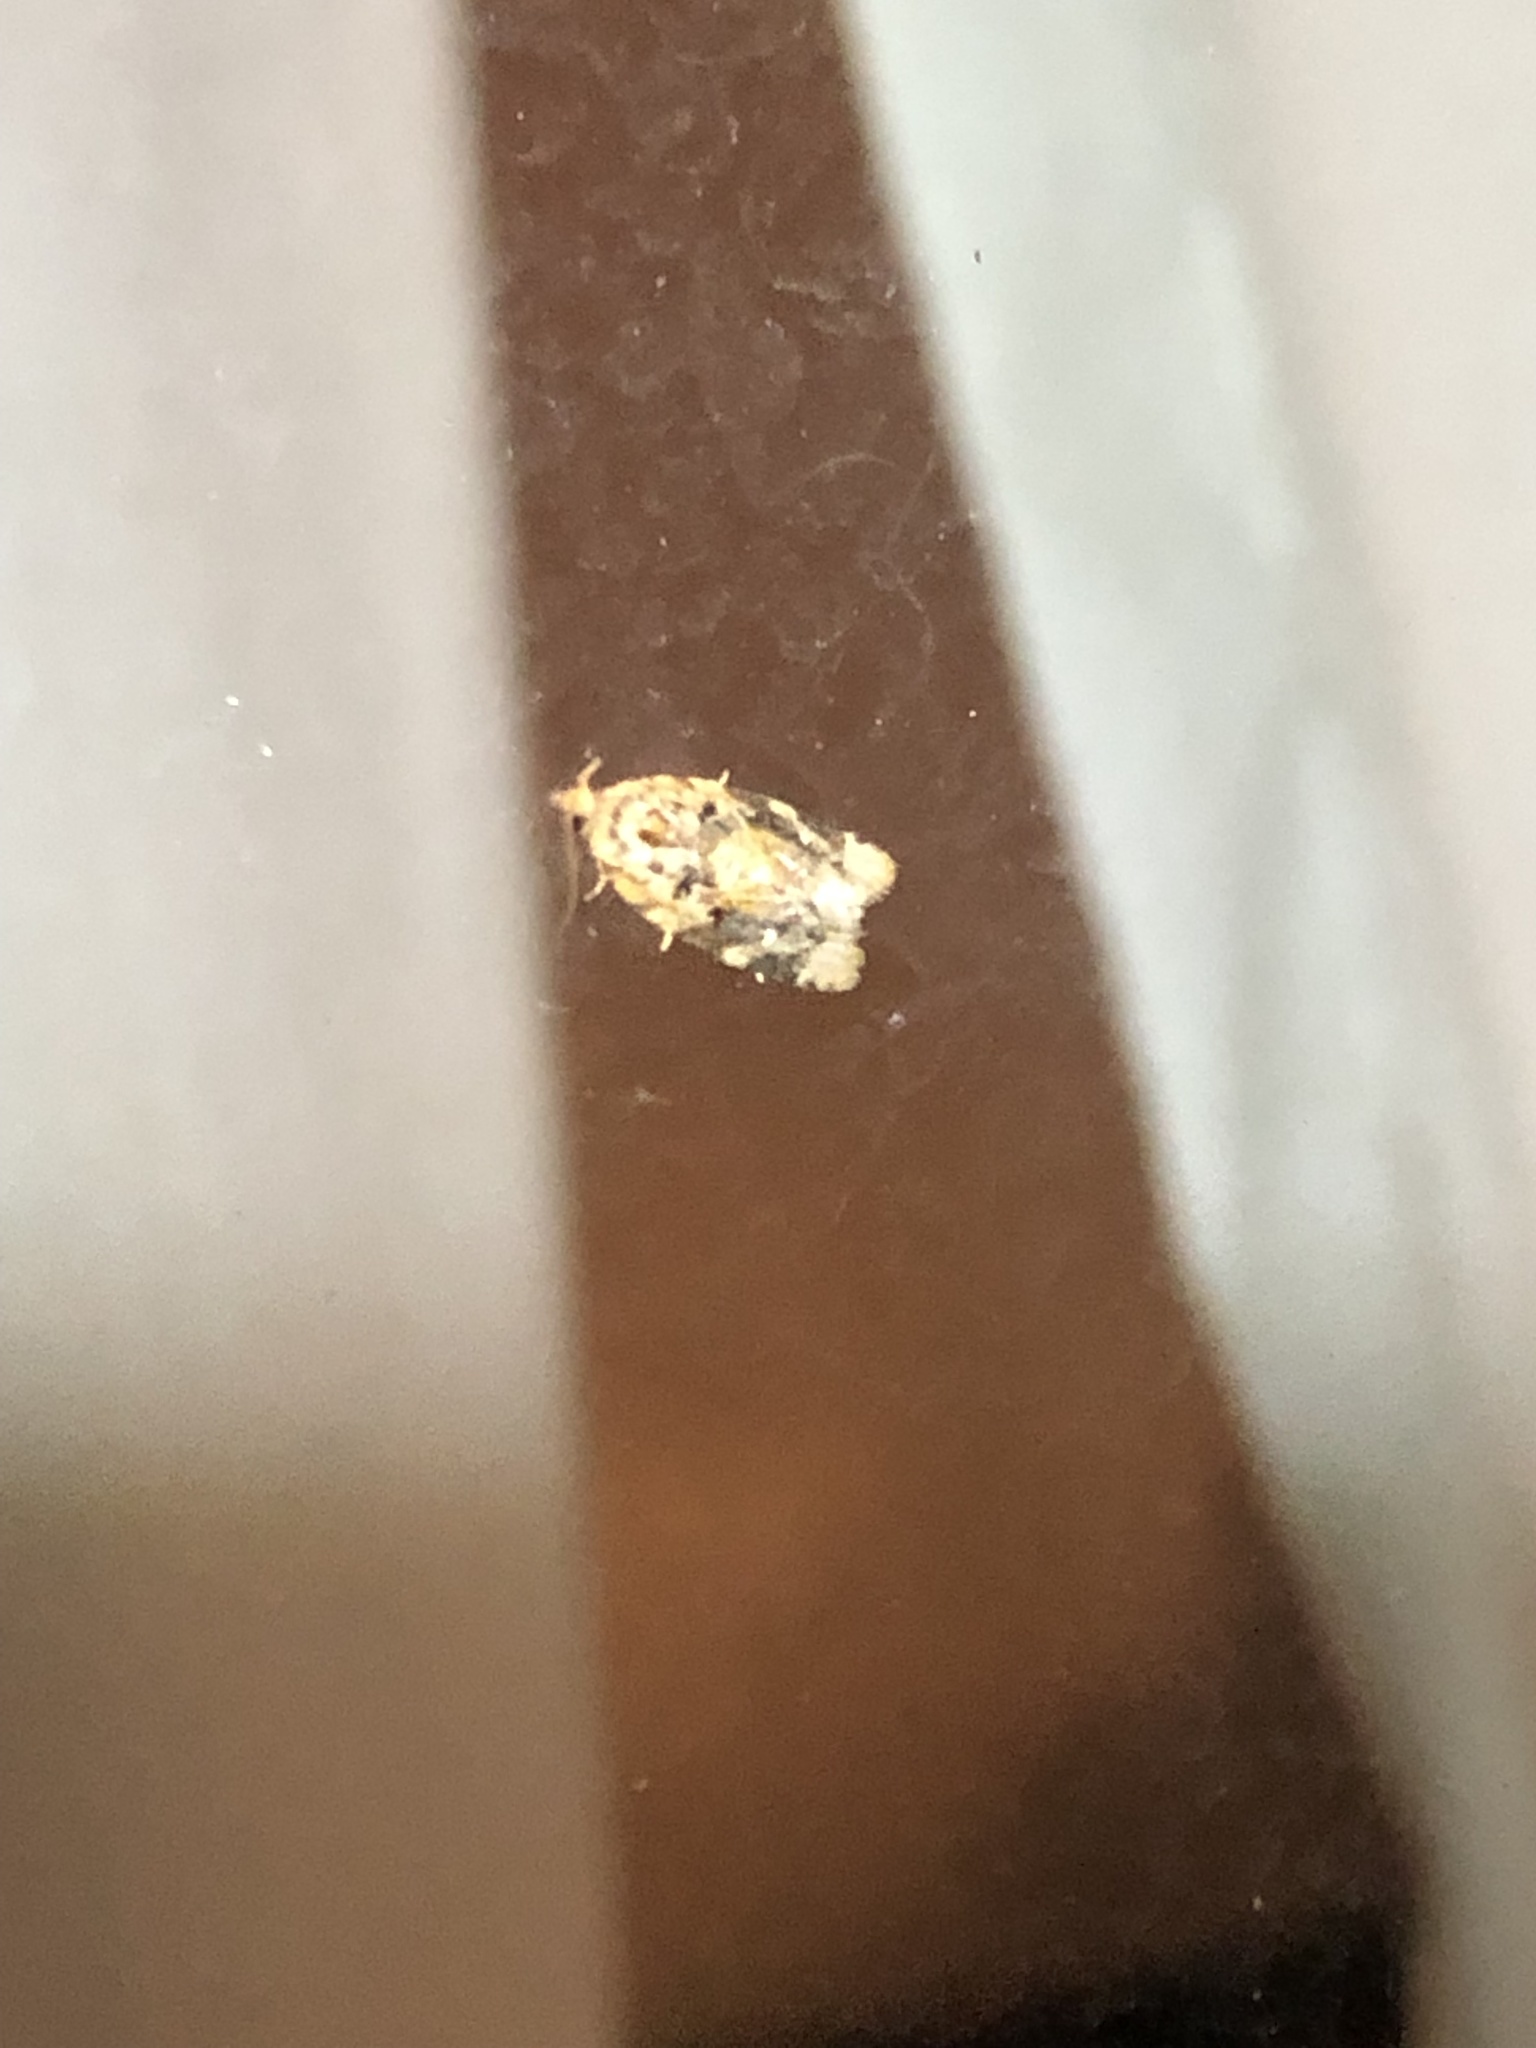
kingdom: Animalia
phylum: Arthropoda
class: Insecta
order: Lepidoptera
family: Tortricidae
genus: Argyrotaenia
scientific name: Argyrotaenia velutinana
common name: Red-banded leafroller moth
